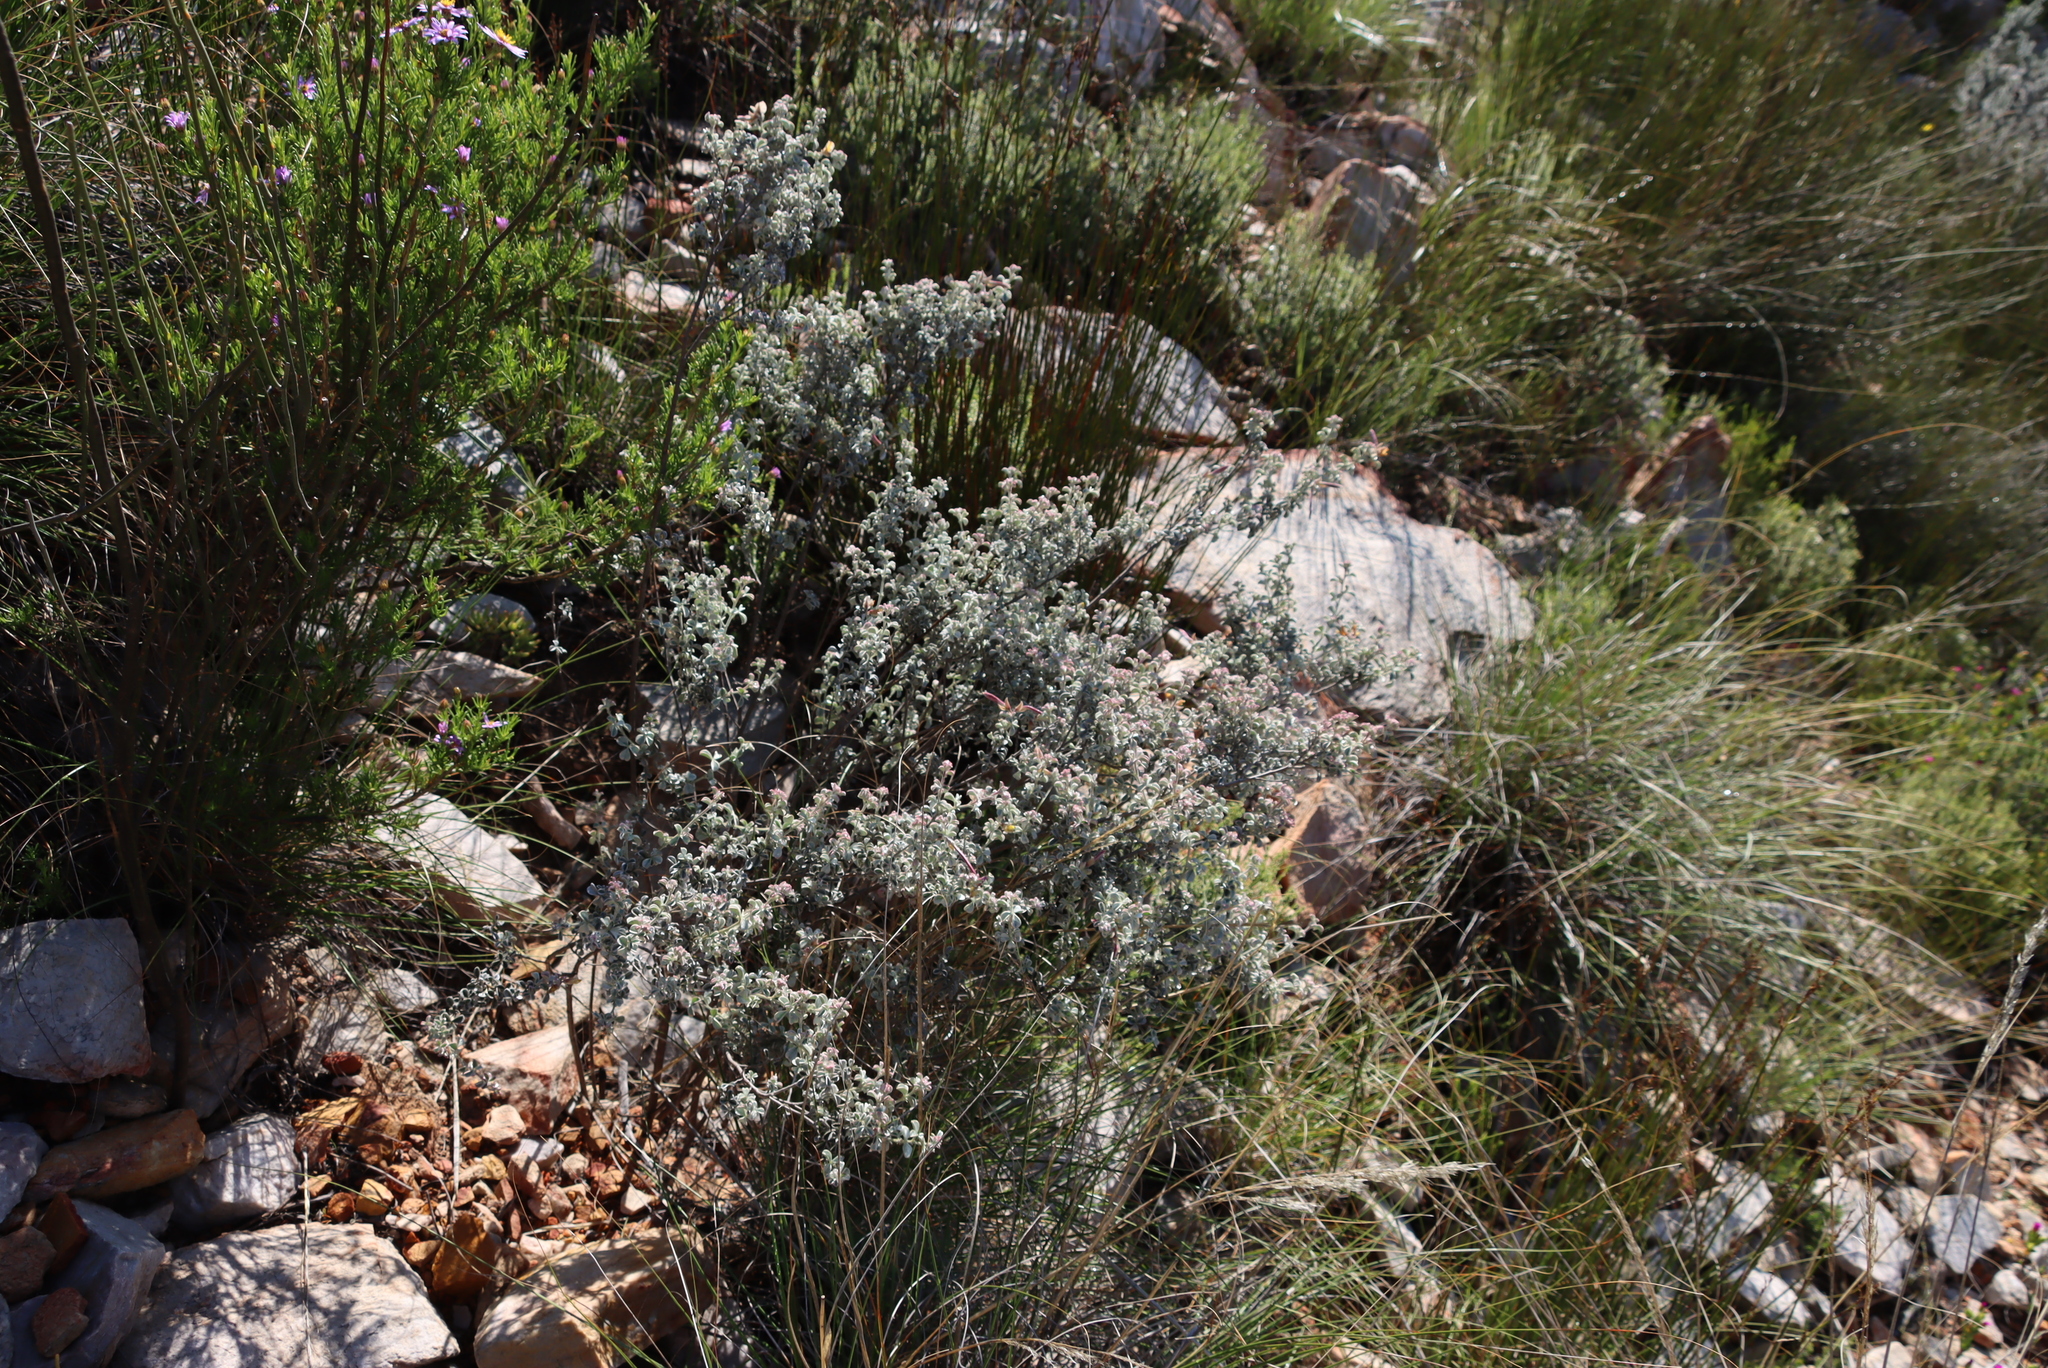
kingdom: Plantae
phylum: Tracheophyta
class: Magnoliopsida
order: Fabales
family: Fabaceae
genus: Argyrolobium
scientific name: Argyrolobium incanum
